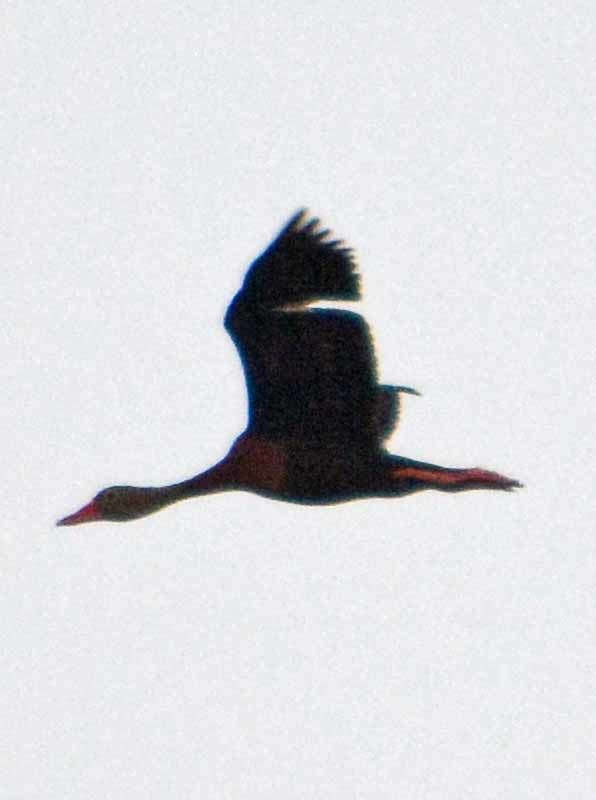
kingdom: Animalia
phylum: Chordata
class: Aves
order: Anseriformes
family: Anatidae
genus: Dendrocygna
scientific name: Dendrocygna autumnalis
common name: Black-bellied whistling duck
